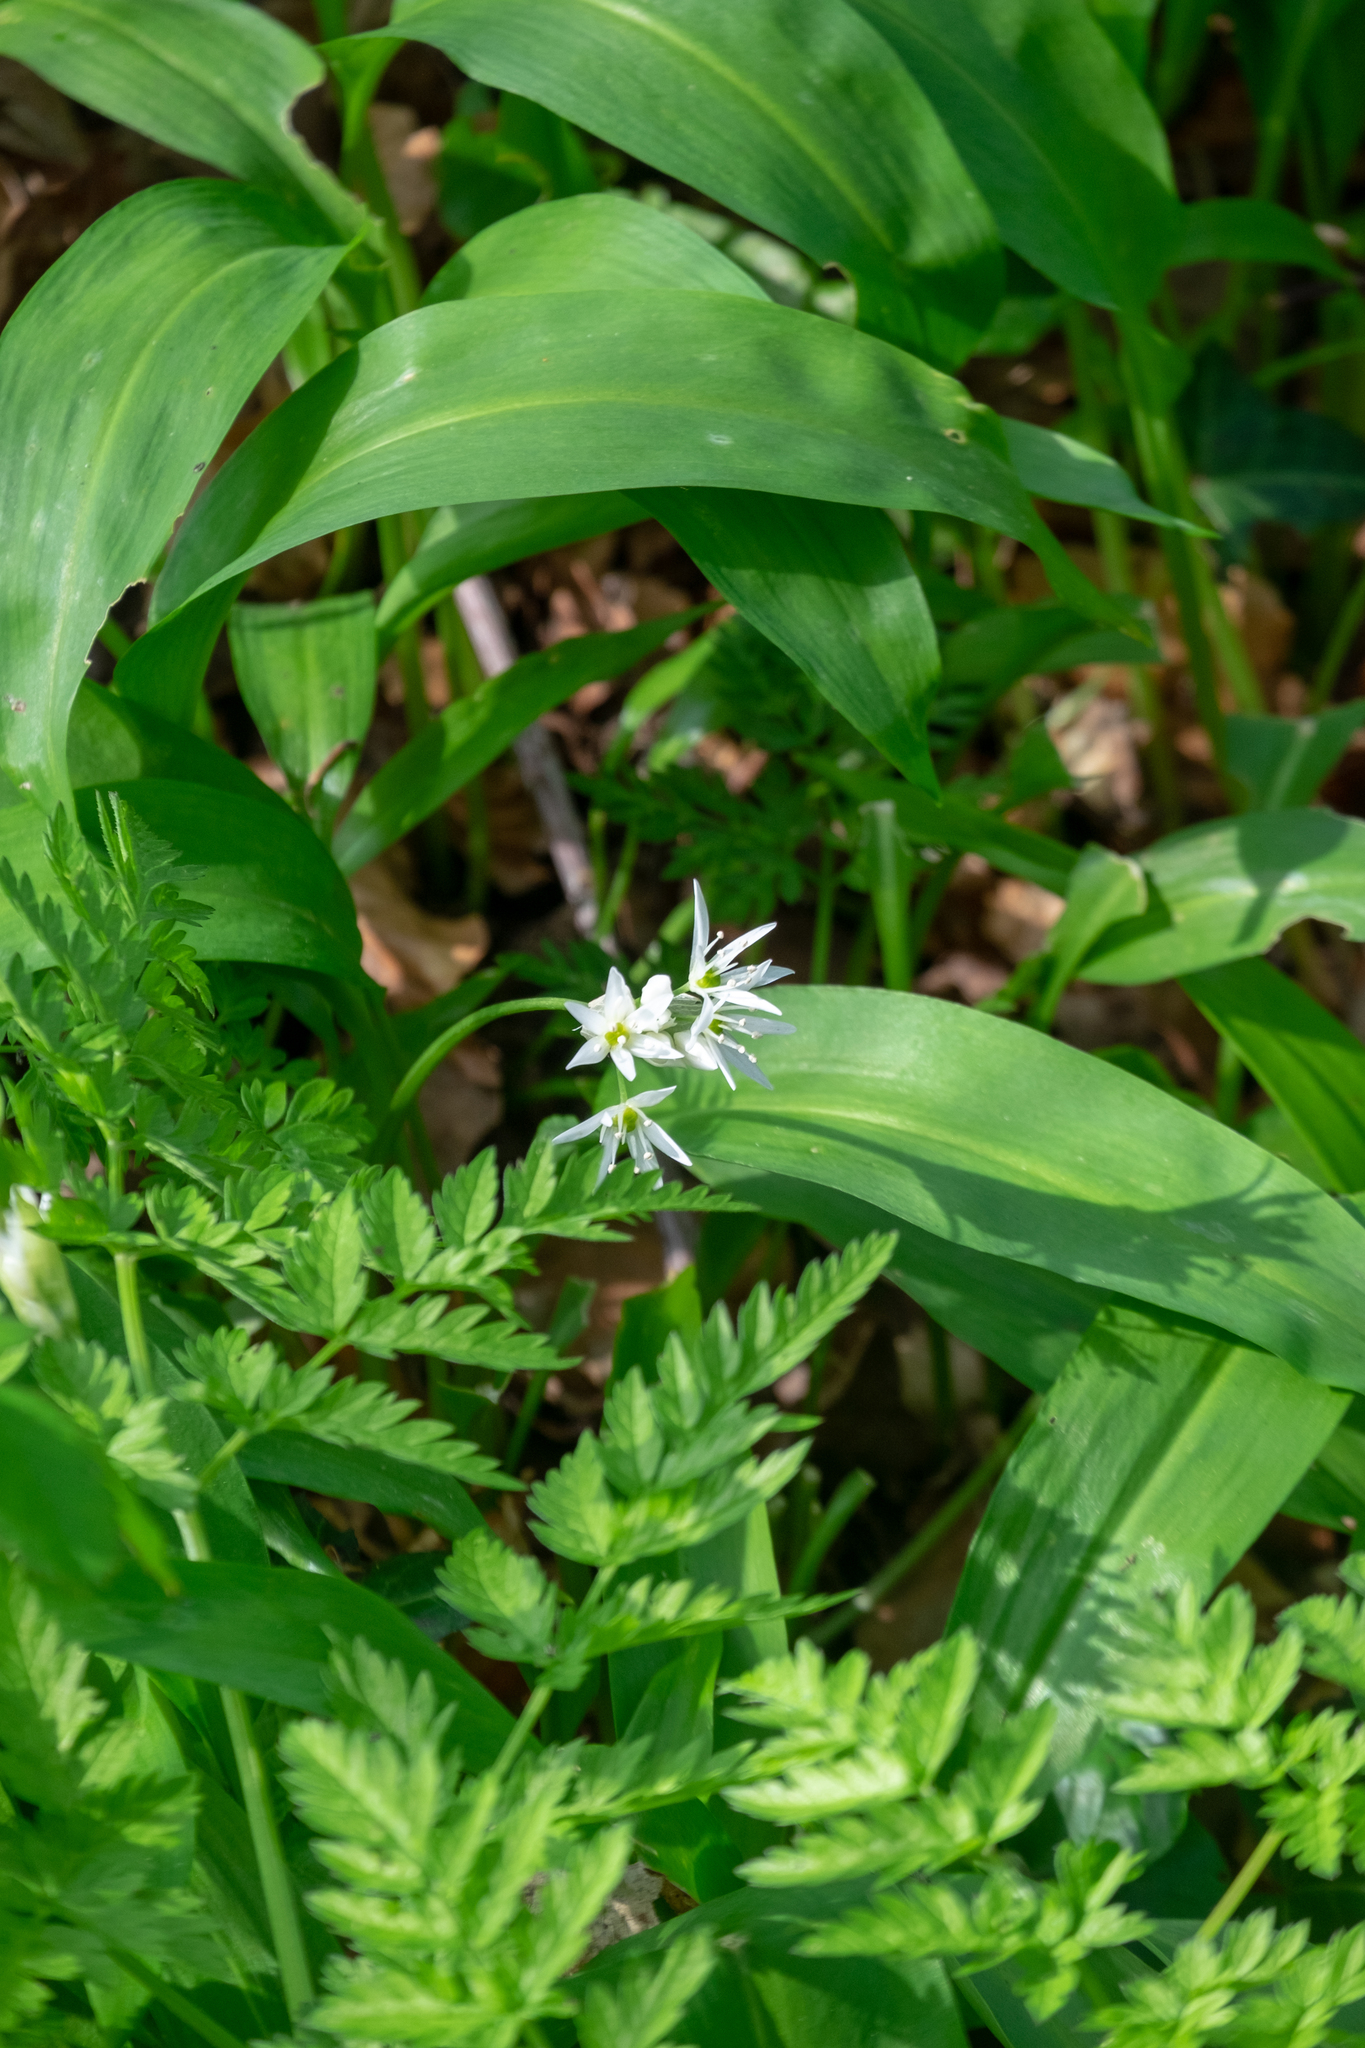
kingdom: Plantae
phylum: Tracheophyta
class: Liliopsida
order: Asparagales
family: Amaryllidaceae
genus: Allium
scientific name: Allium ursinum
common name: Ramsons
